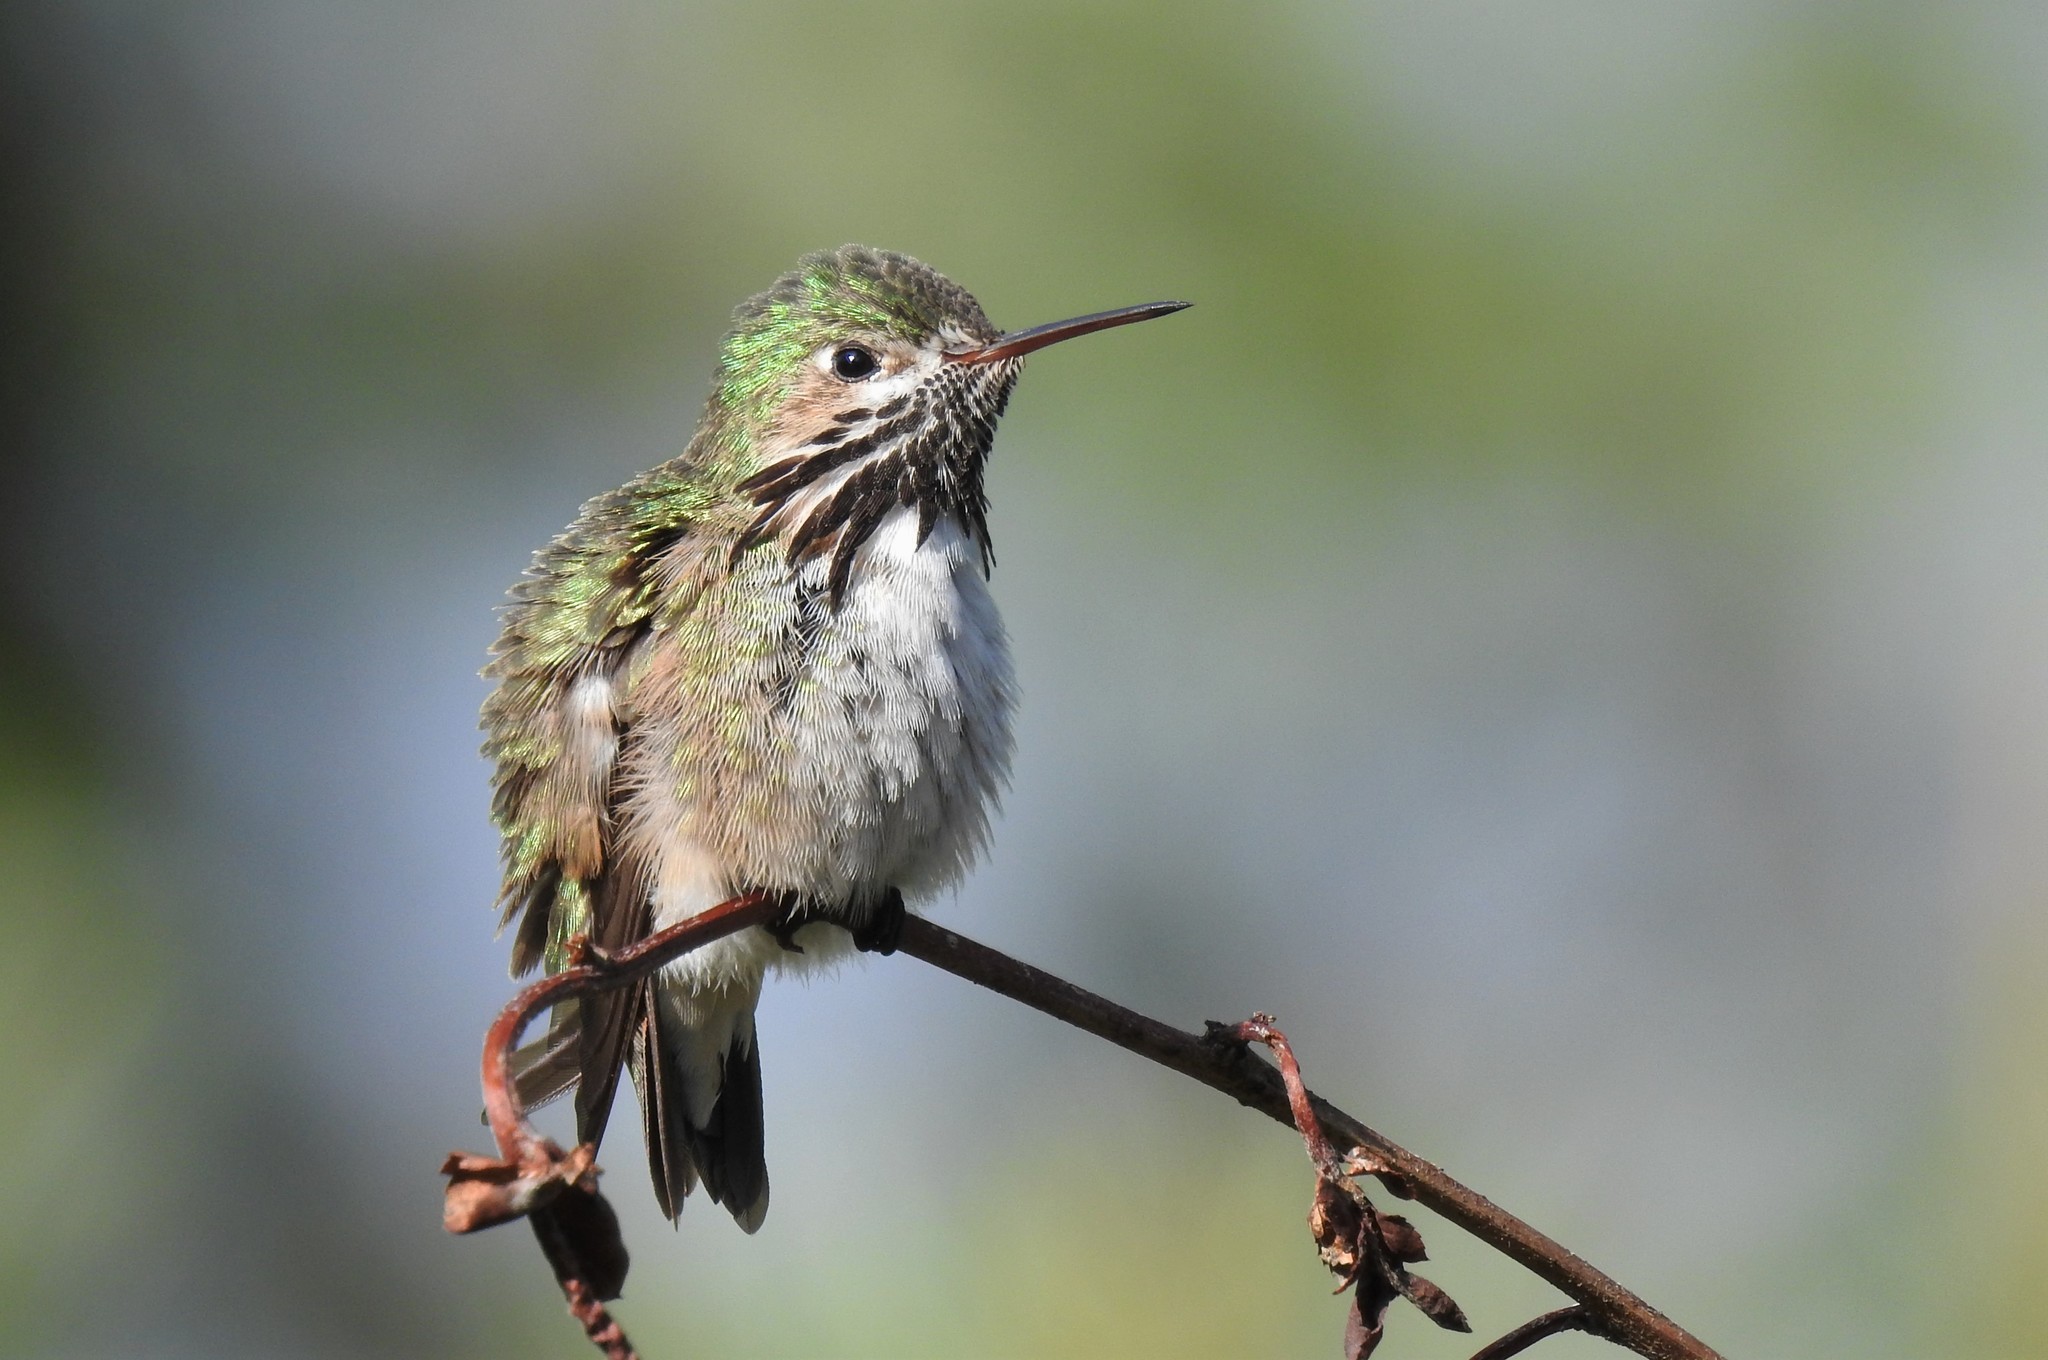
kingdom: Animalia
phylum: Chordata
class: Aves
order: Apodiformes
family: Trochilidae
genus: Selasphorus
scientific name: Selasphorus calliope
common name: Calliope hummingbird
